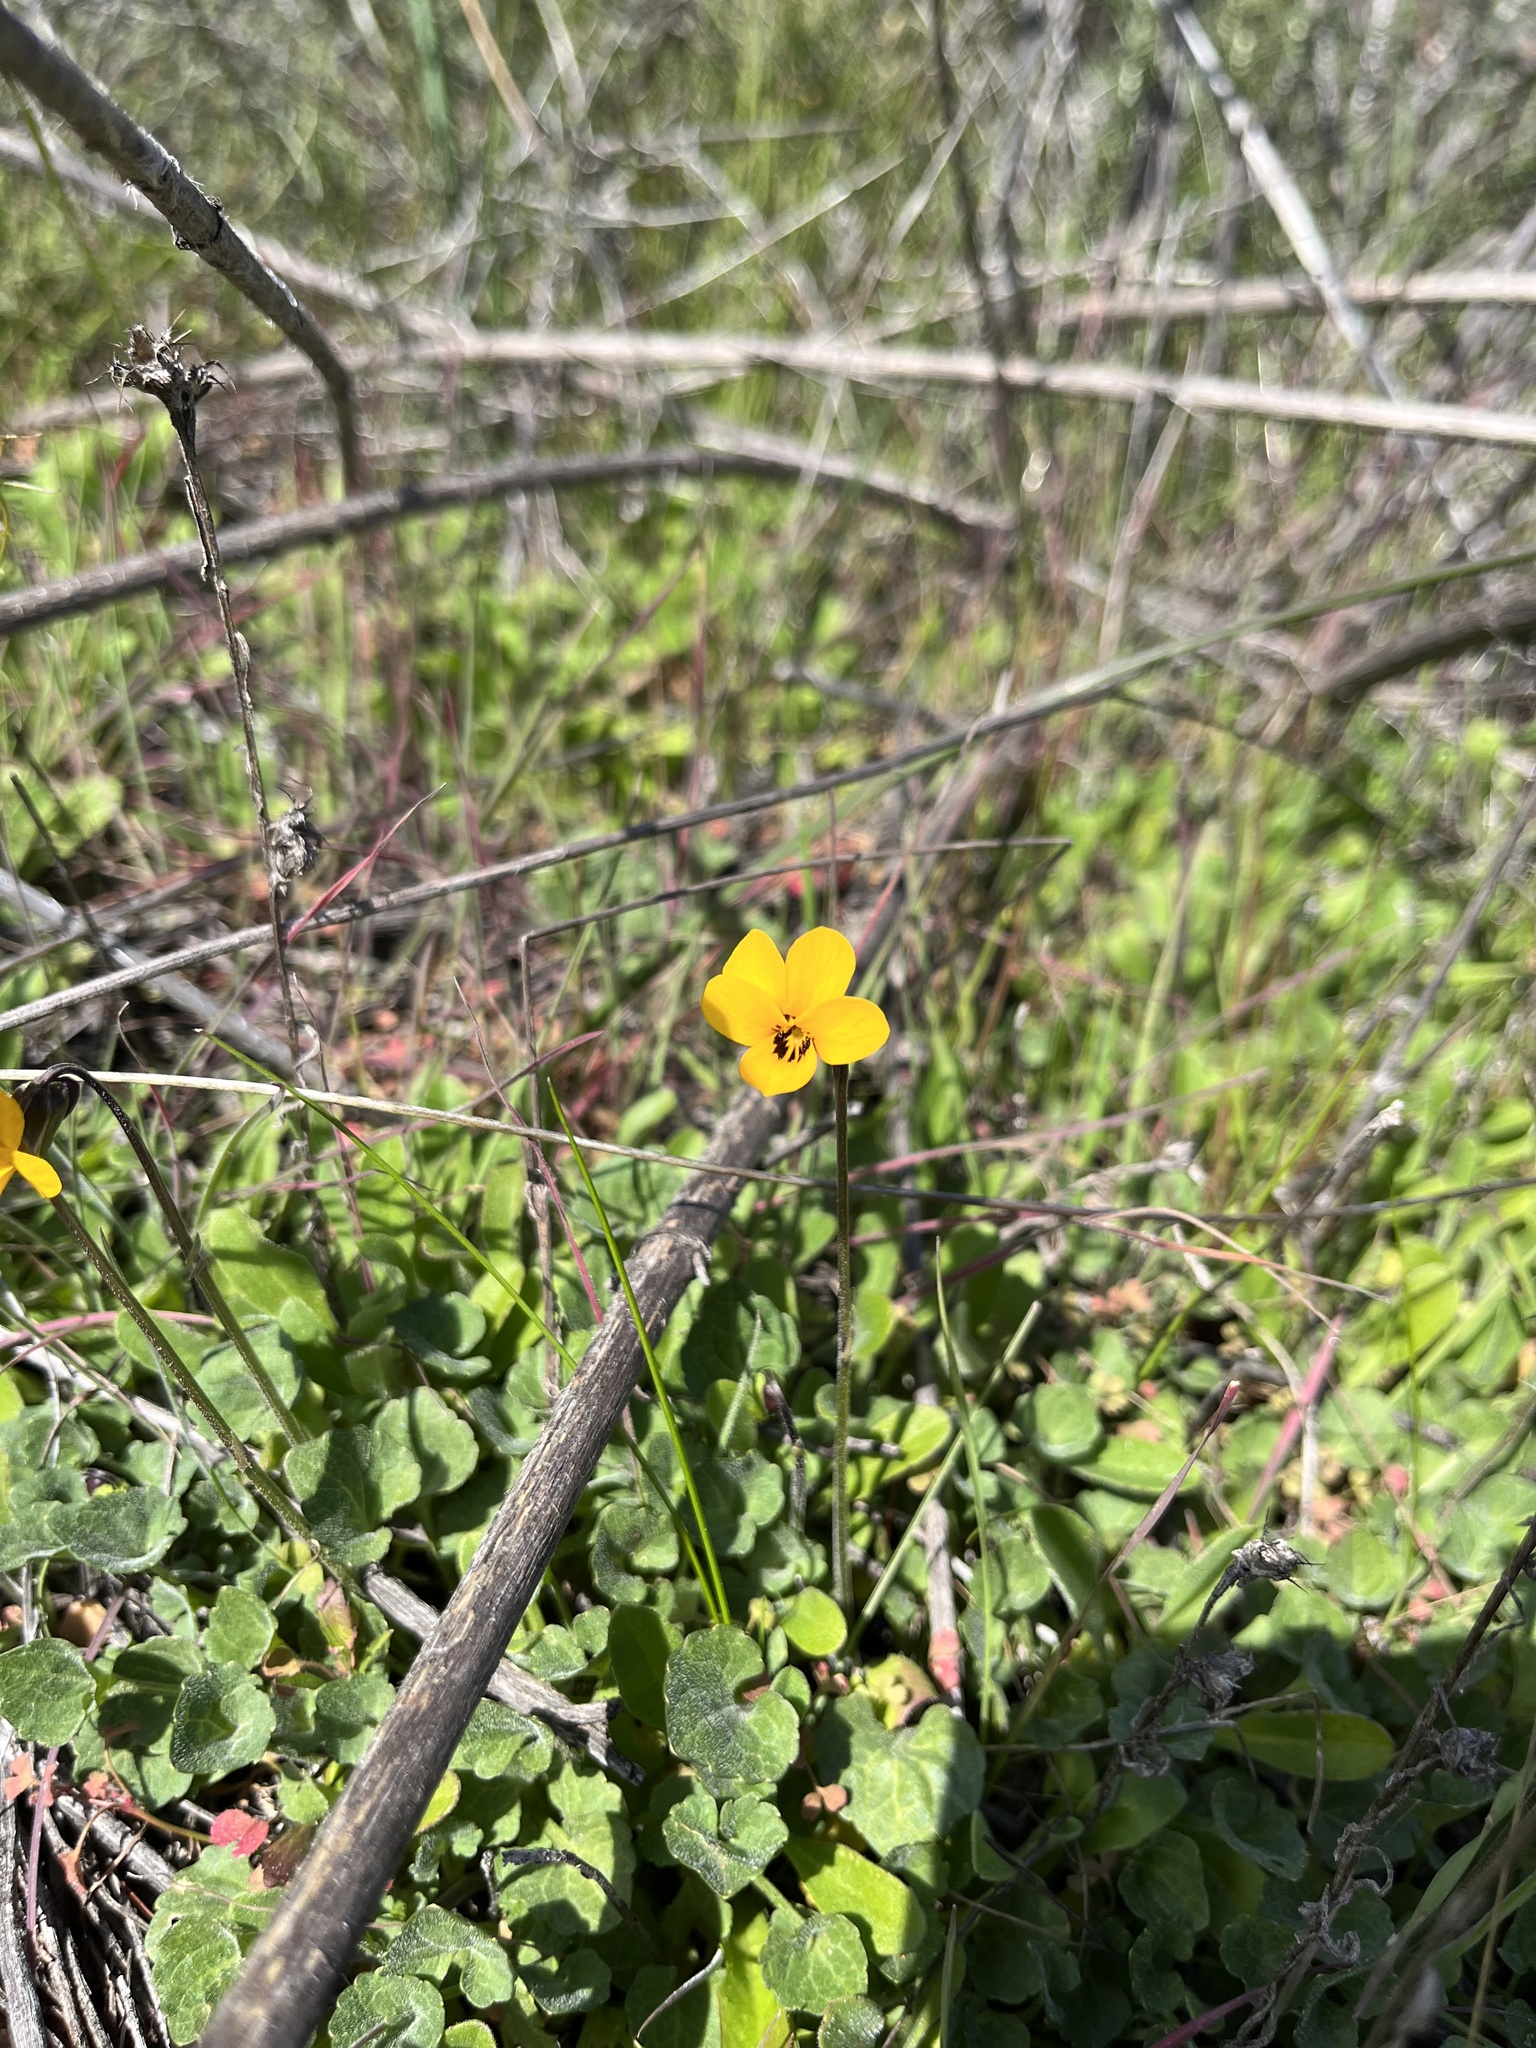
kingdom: Plantae
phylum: Tracheophyta
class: Magnoliopsida
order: Malpighiales
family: Violaceae
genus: Viola
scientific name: Viola pedunculata
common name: California golden violet
